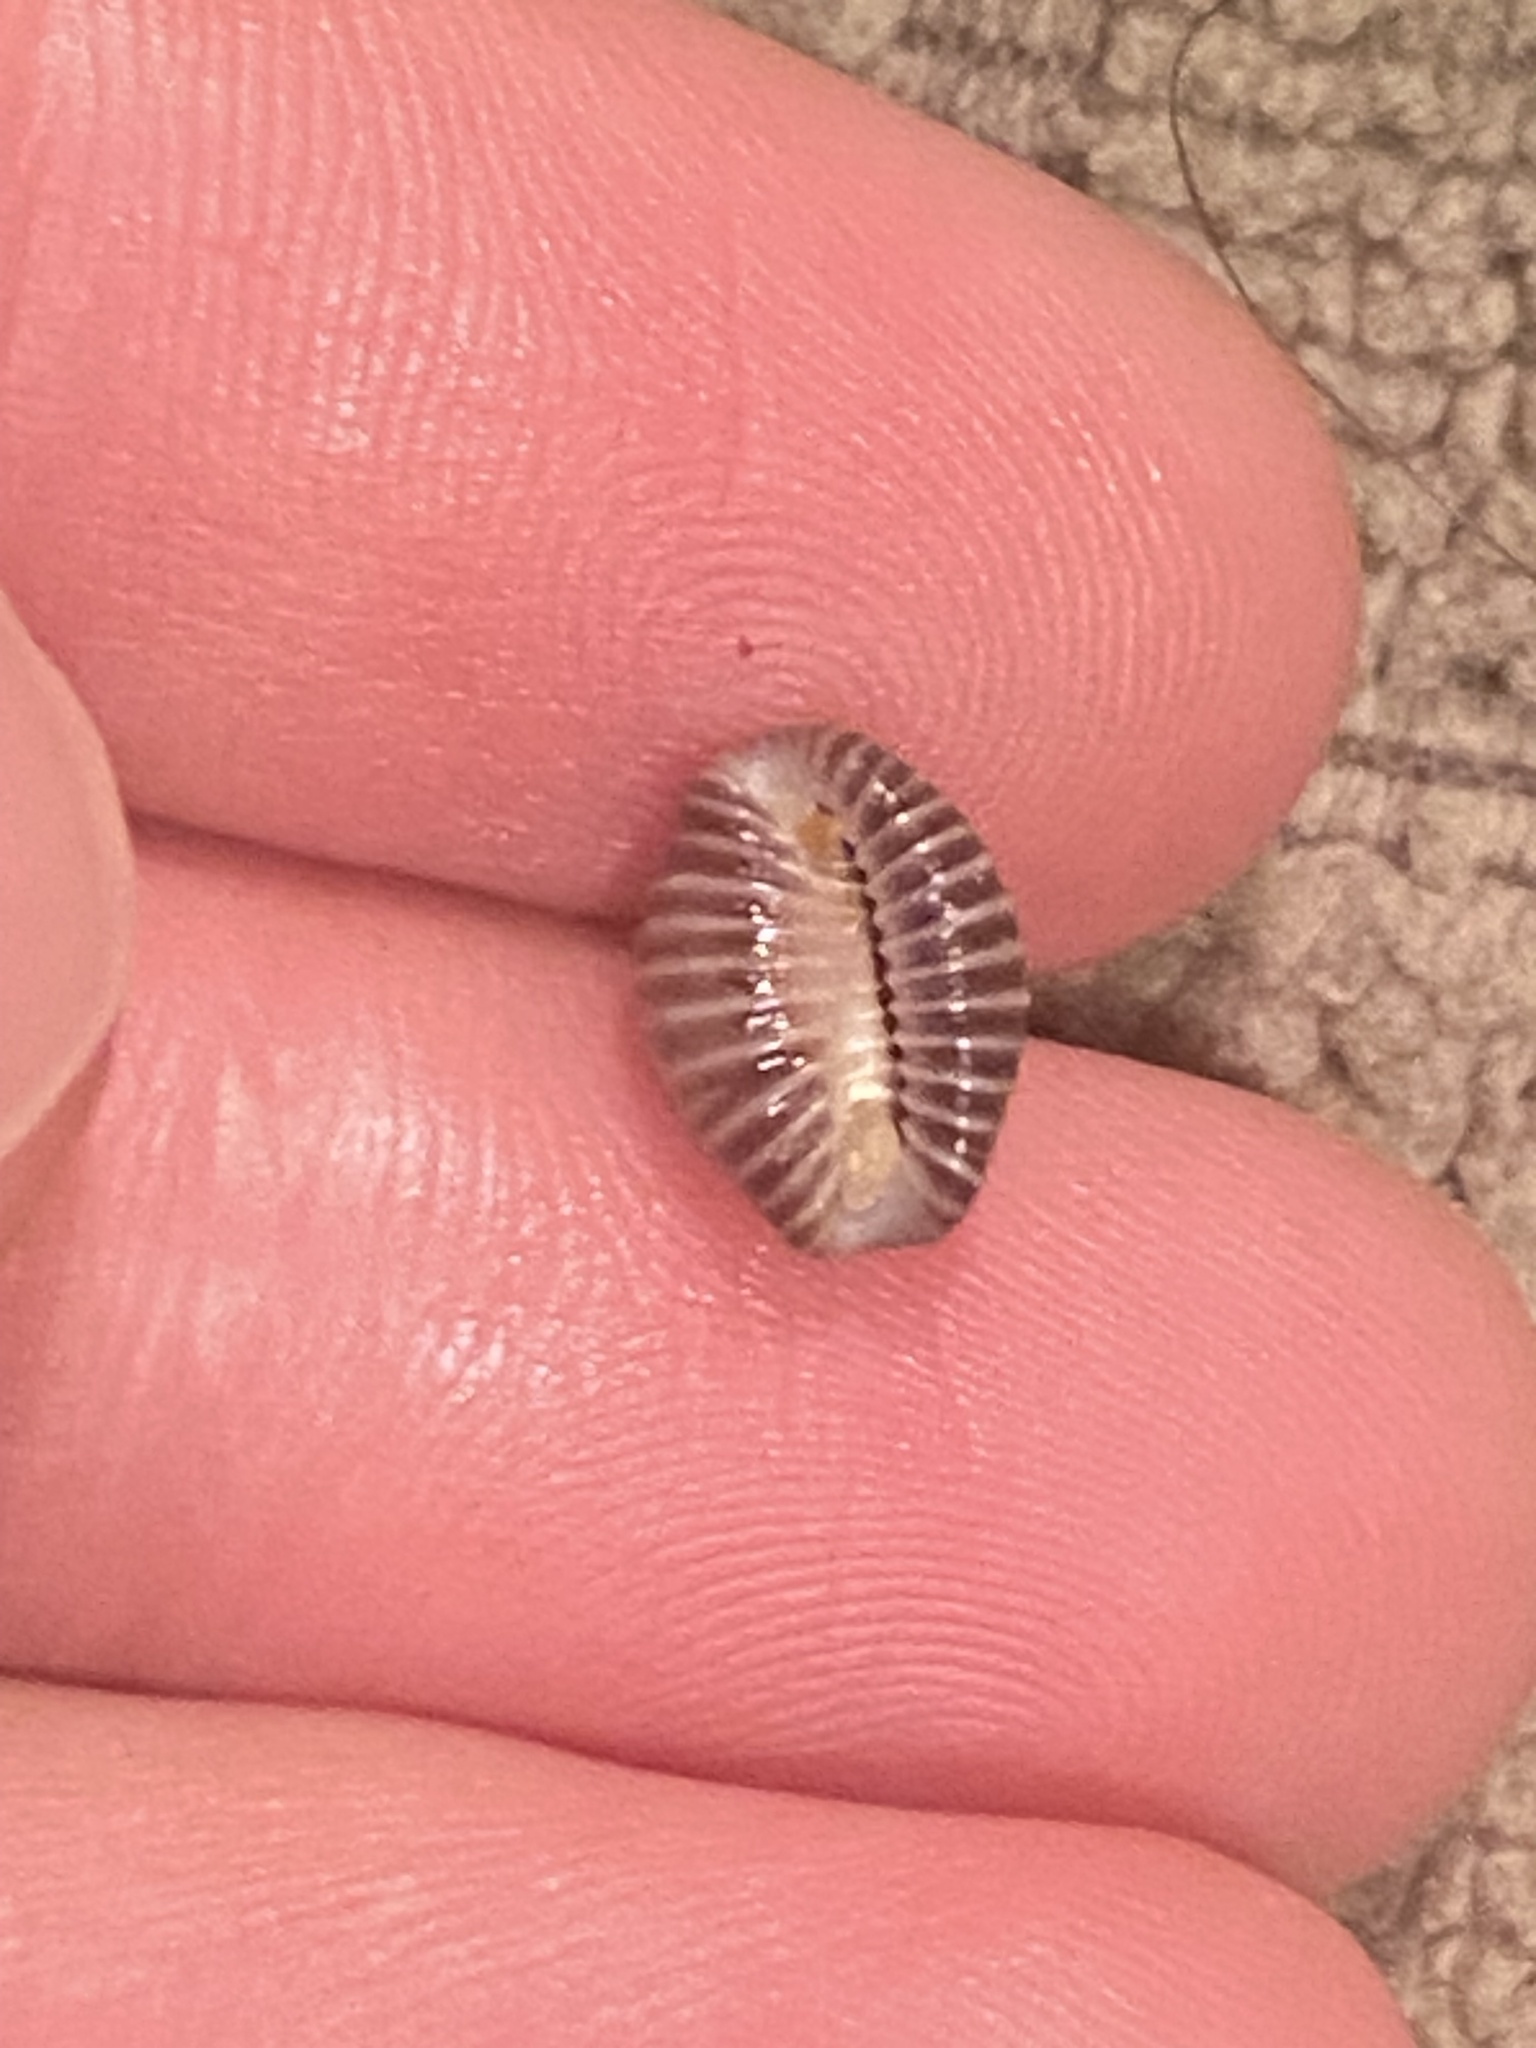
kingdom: Animalia
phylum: Mollusca
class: Gastropoda
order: Littorinimorpha
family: Triviidae
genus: Pseudopusula
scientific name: Pseudopusula californiana
